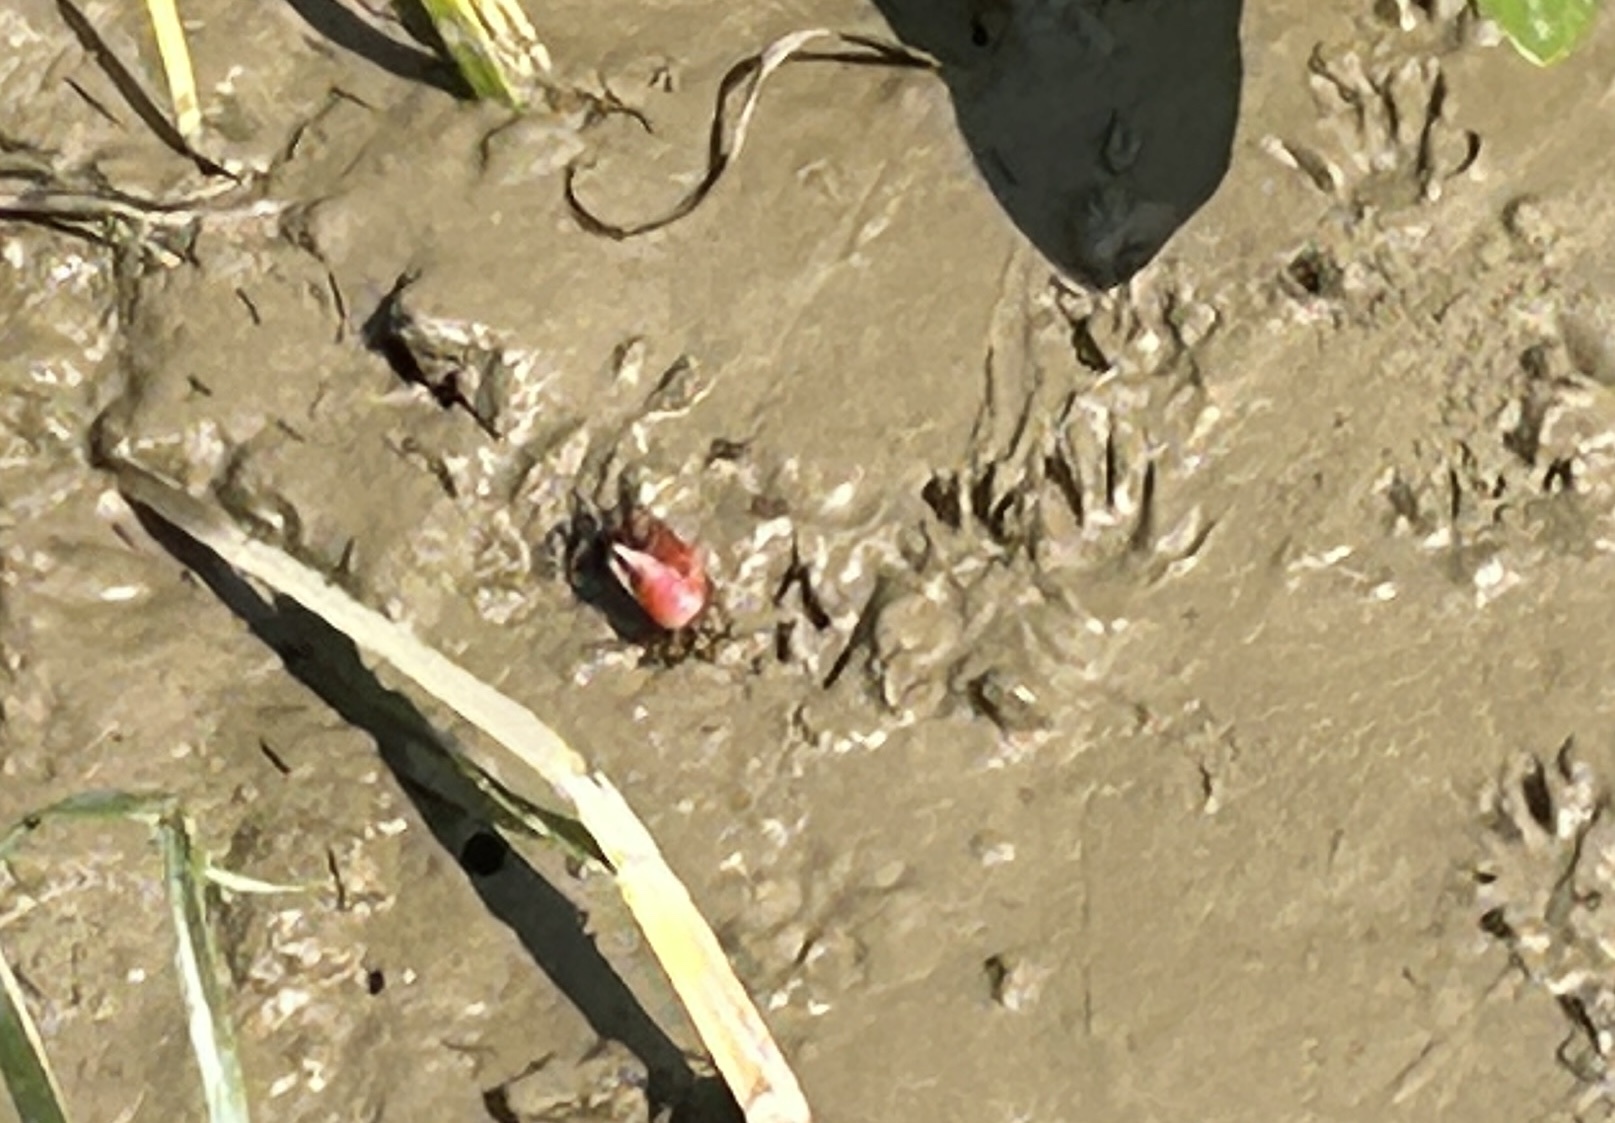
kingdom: Animalia
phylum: Arthropoda
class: Malacostraca
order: Decapoda
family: Ocypodidae
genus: Tubuca
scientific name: Tubuca rosea
